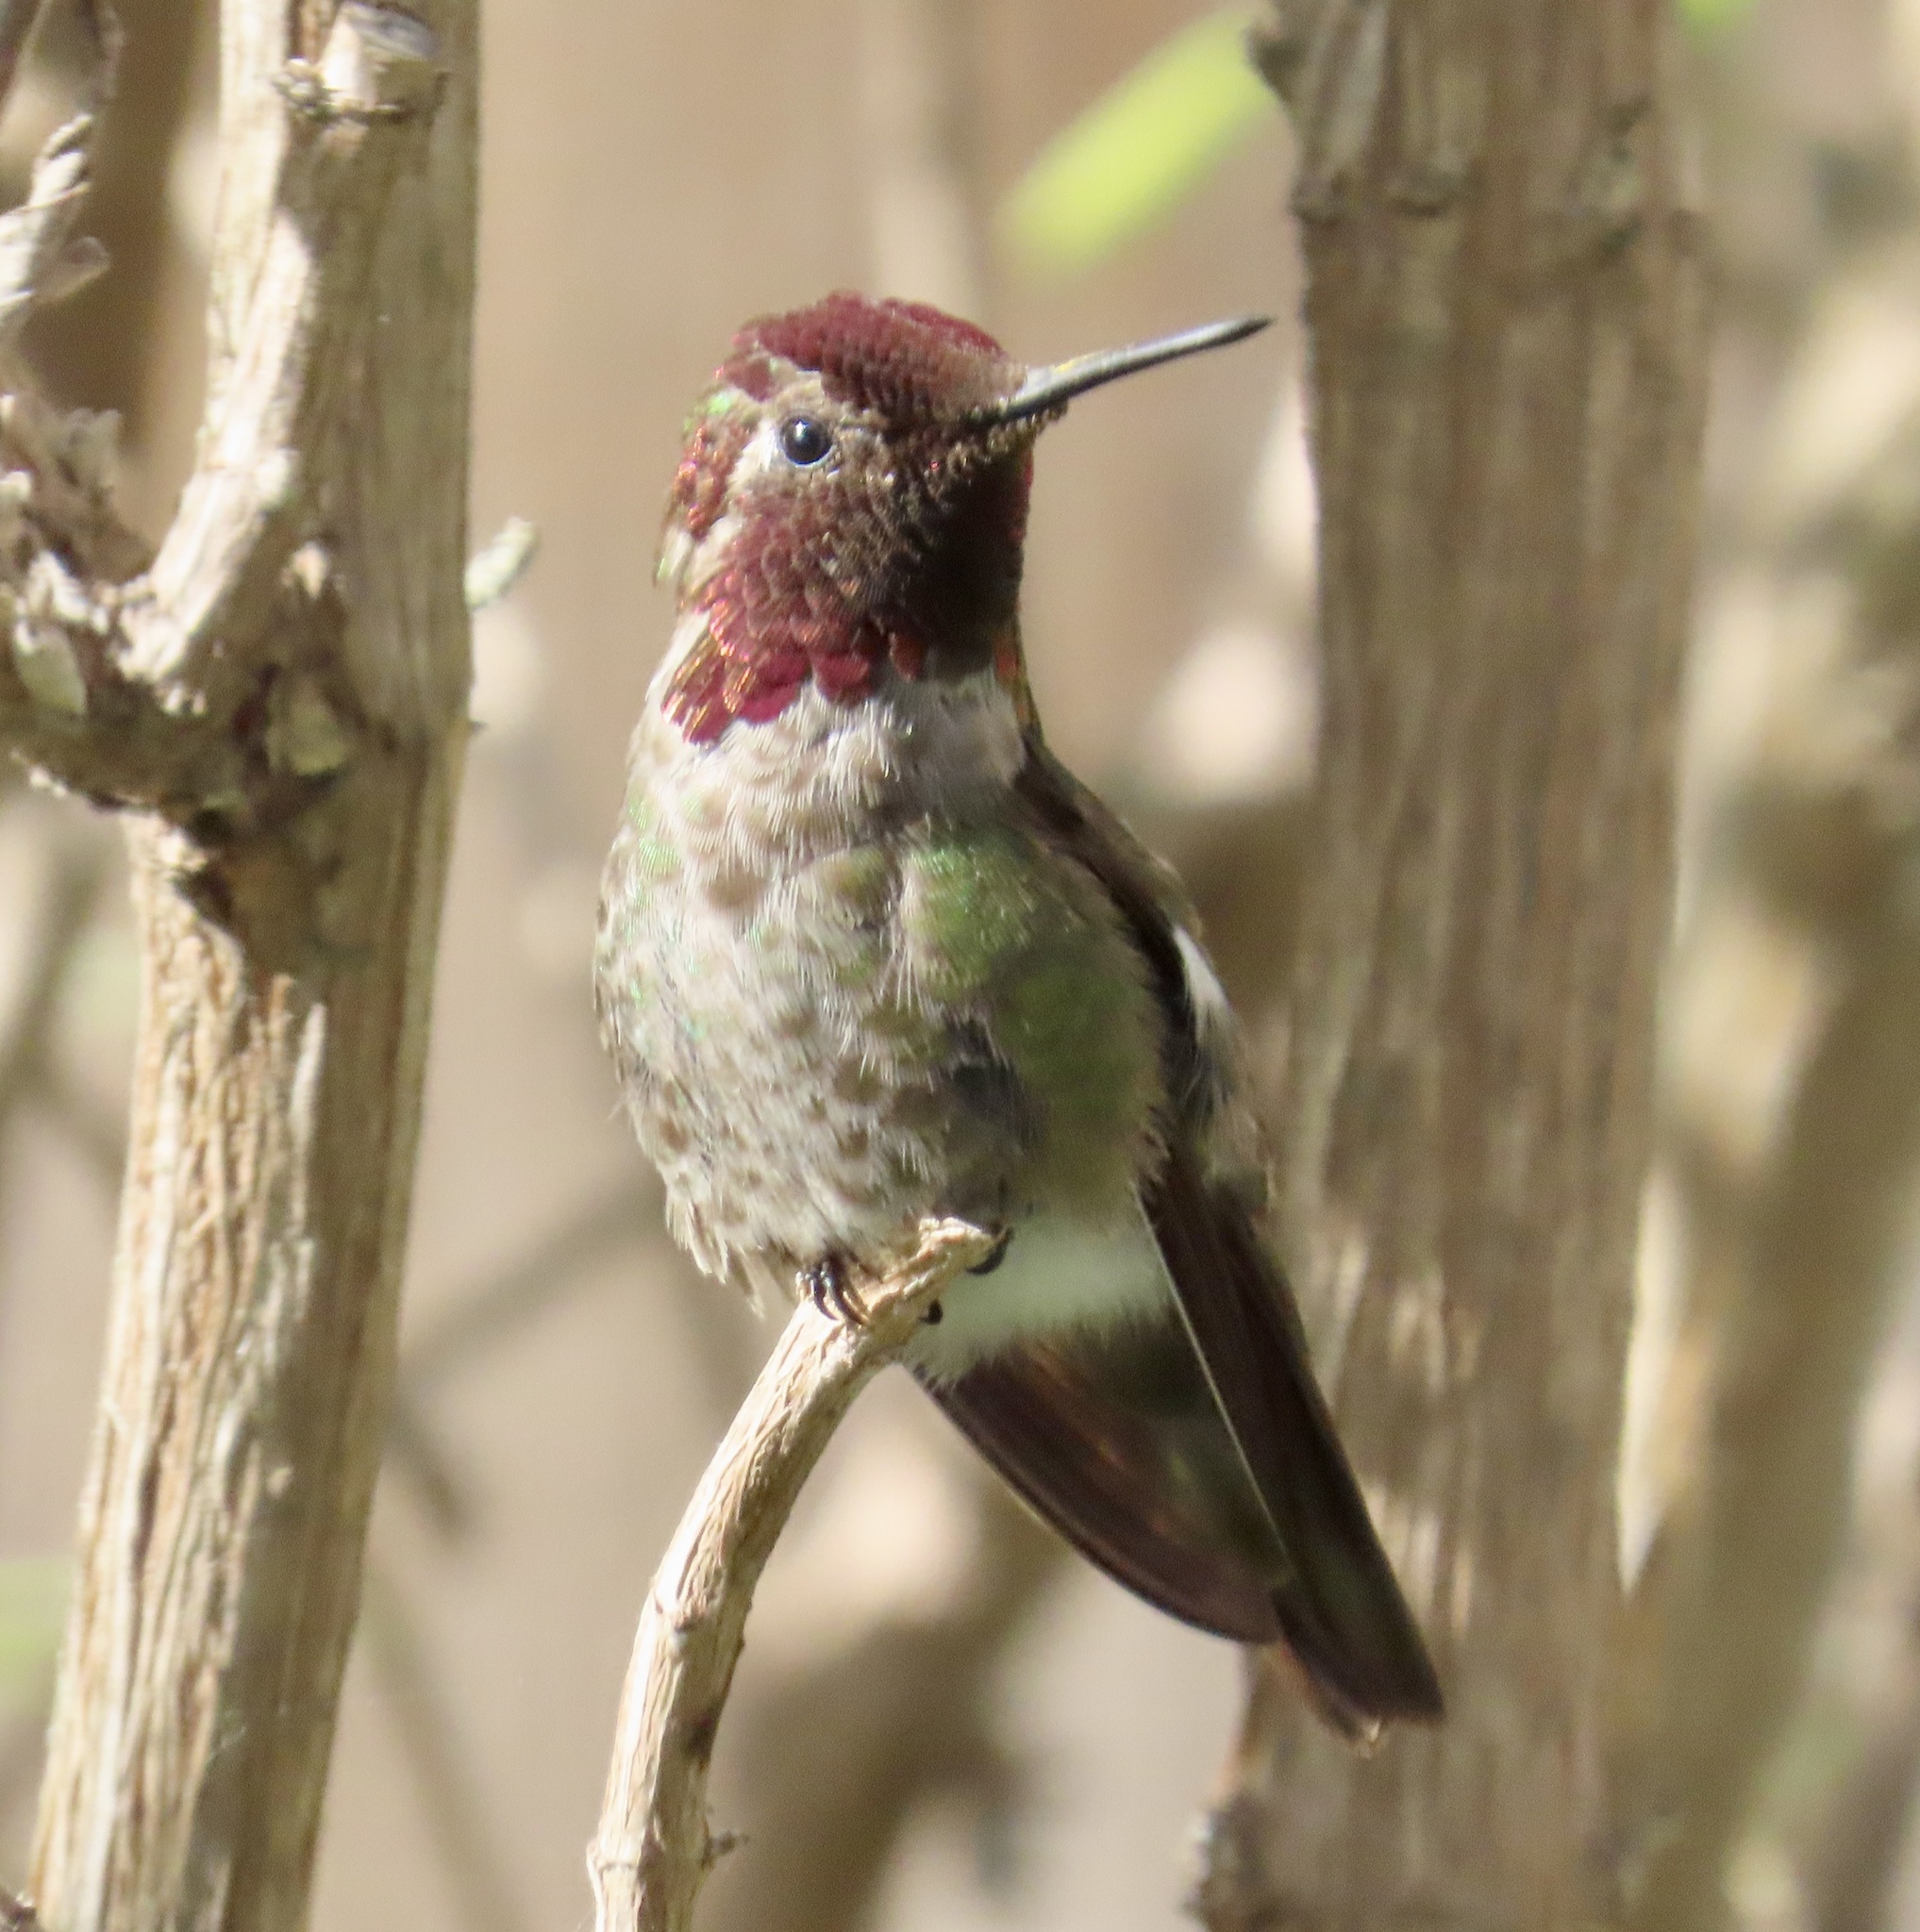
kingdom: Animalia
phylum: Chordata
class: Aves
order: Apodiformes
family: Trochilidae
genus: Calypte
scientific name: Calypte anna
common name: Anna's hummingbird
